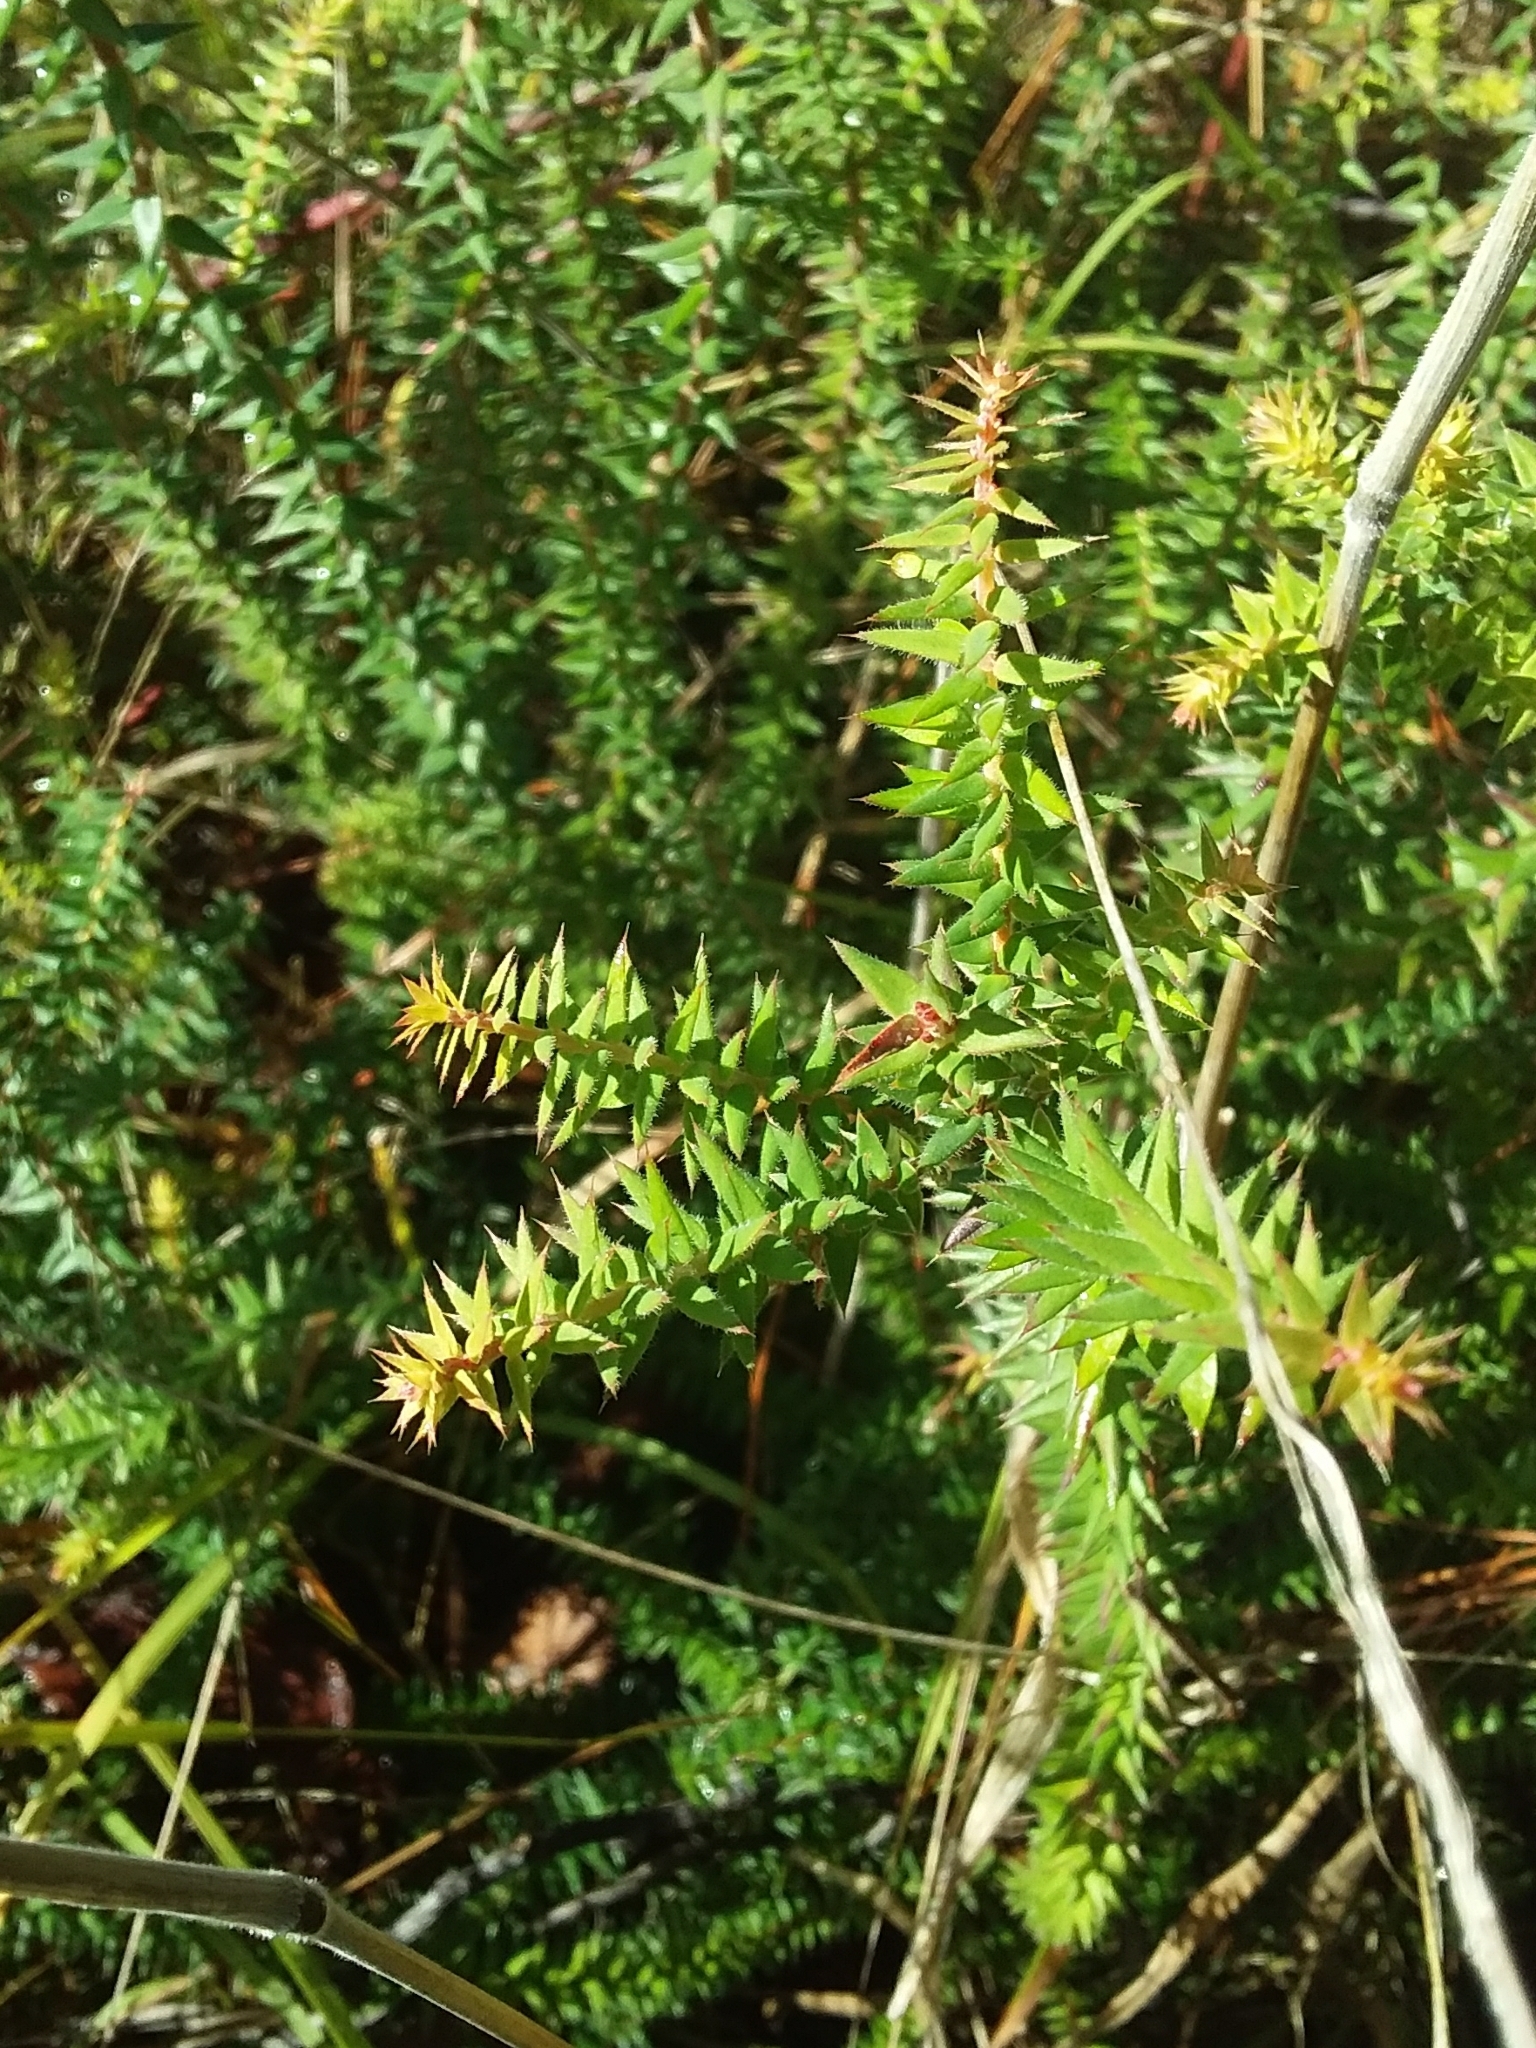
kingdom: Plantae
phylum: Tracheophyta
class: Magnoliopsida
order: Ericales
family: Ericaceae
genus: Acrotriche
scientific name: Acrotriche fasciculiflora
